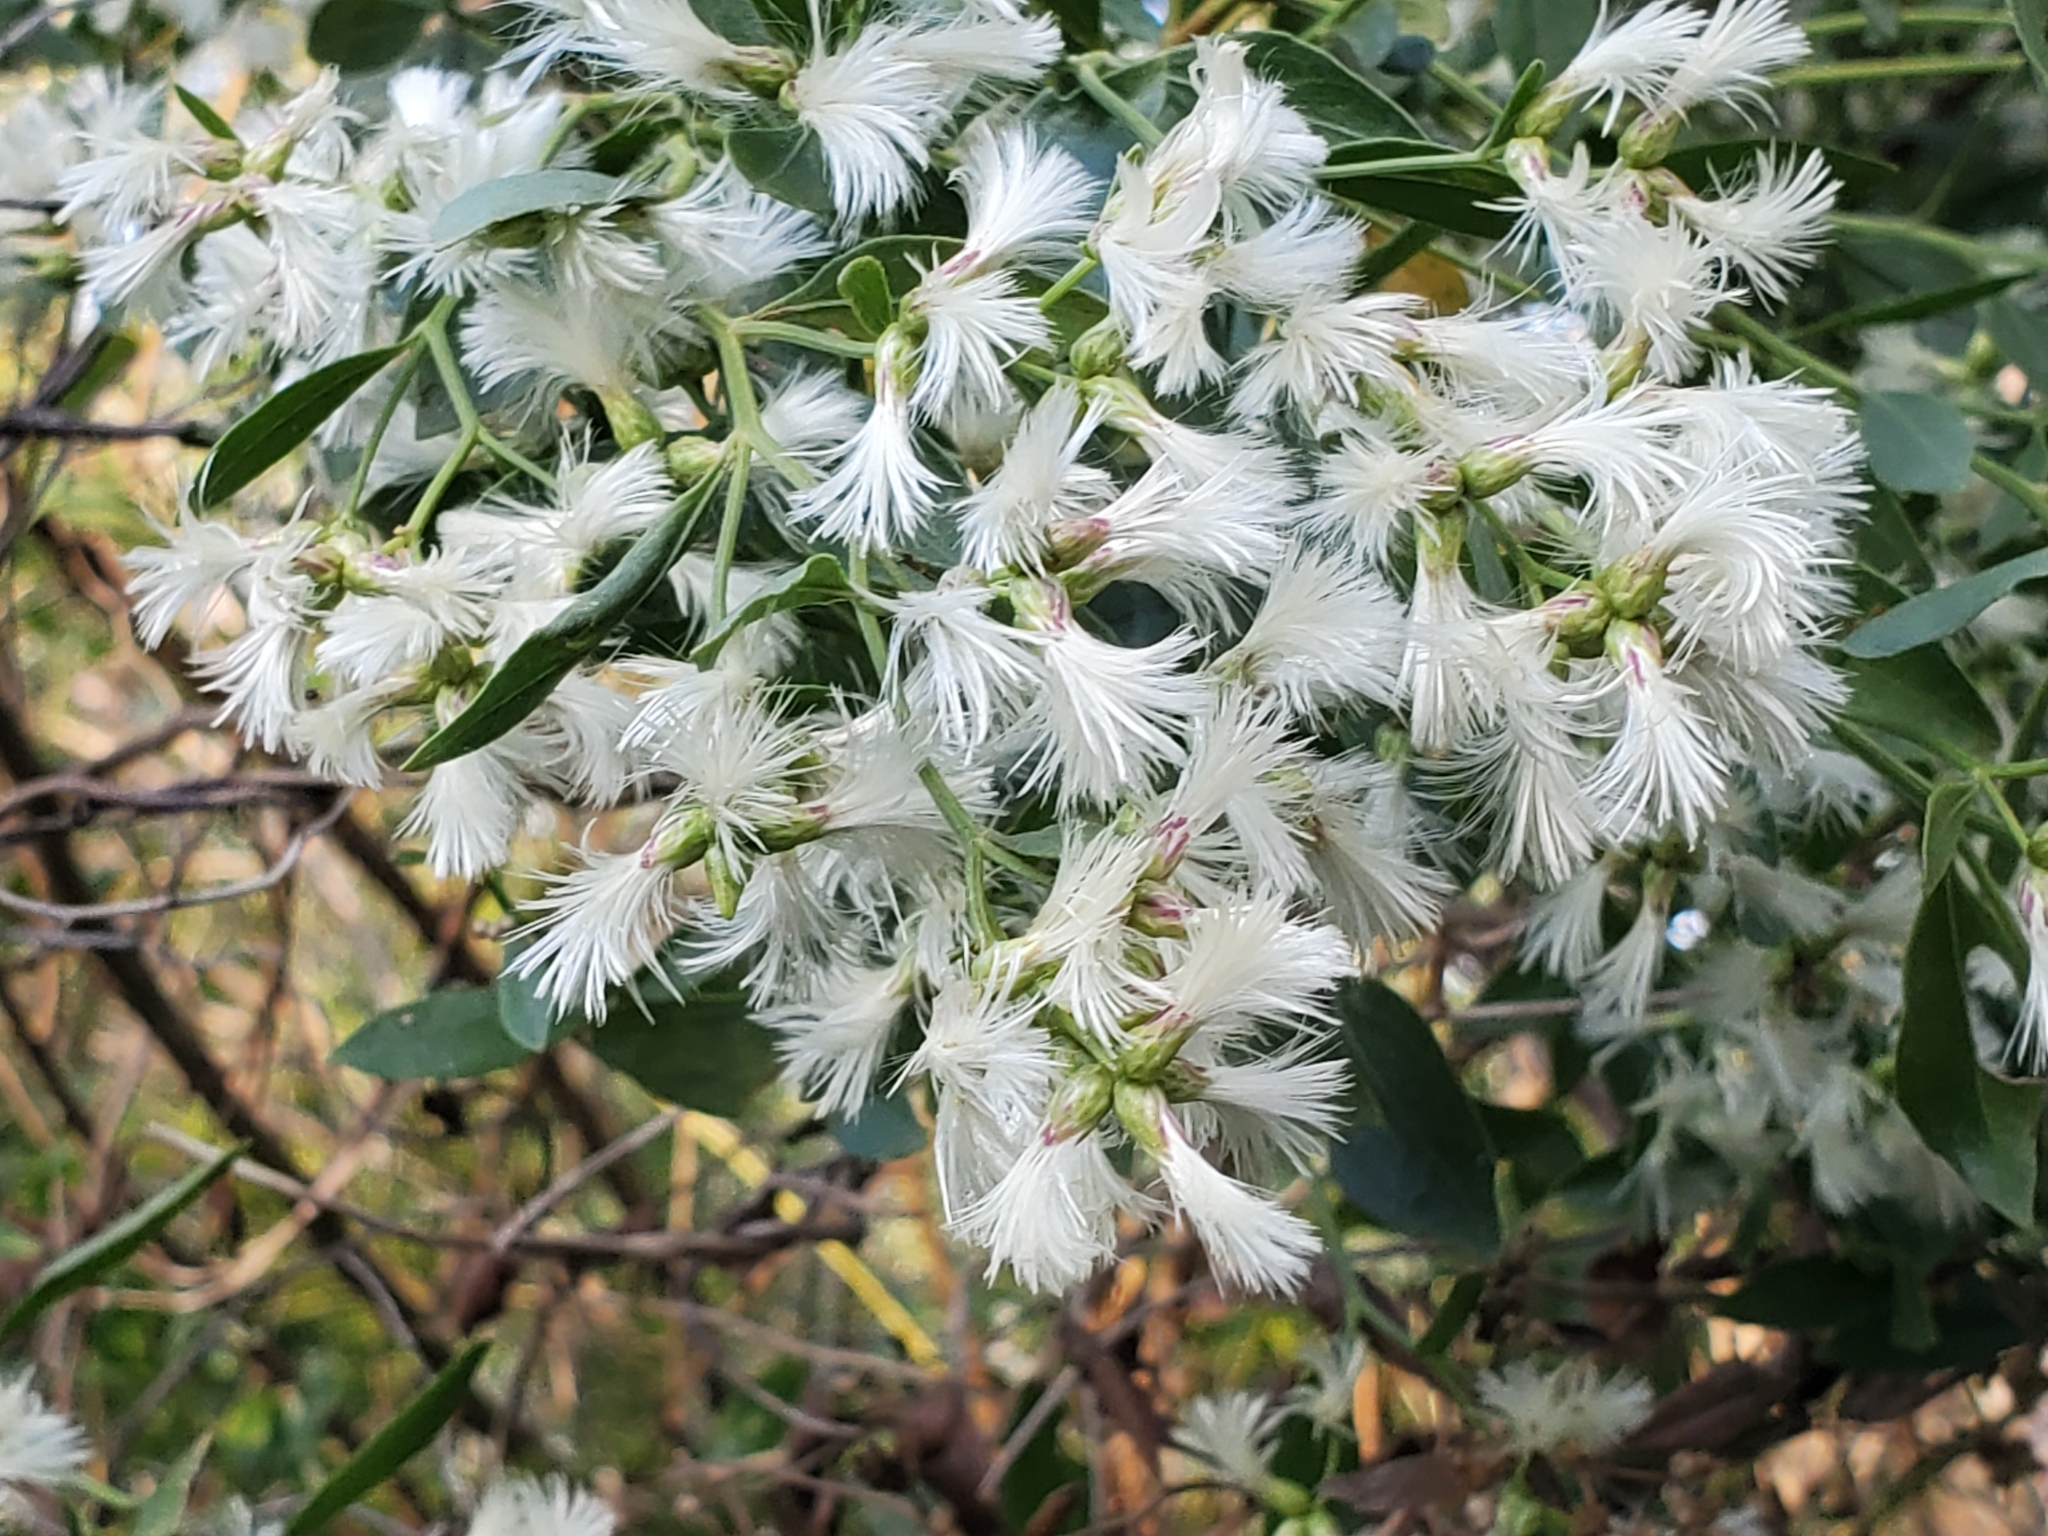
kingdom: Plantae
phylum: Tracheophyta
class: Magnoliopsida
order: Asterales
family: Asteraceae
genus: Baccharis
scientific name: Baccharis halimifolia
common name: Eastern baccharis
